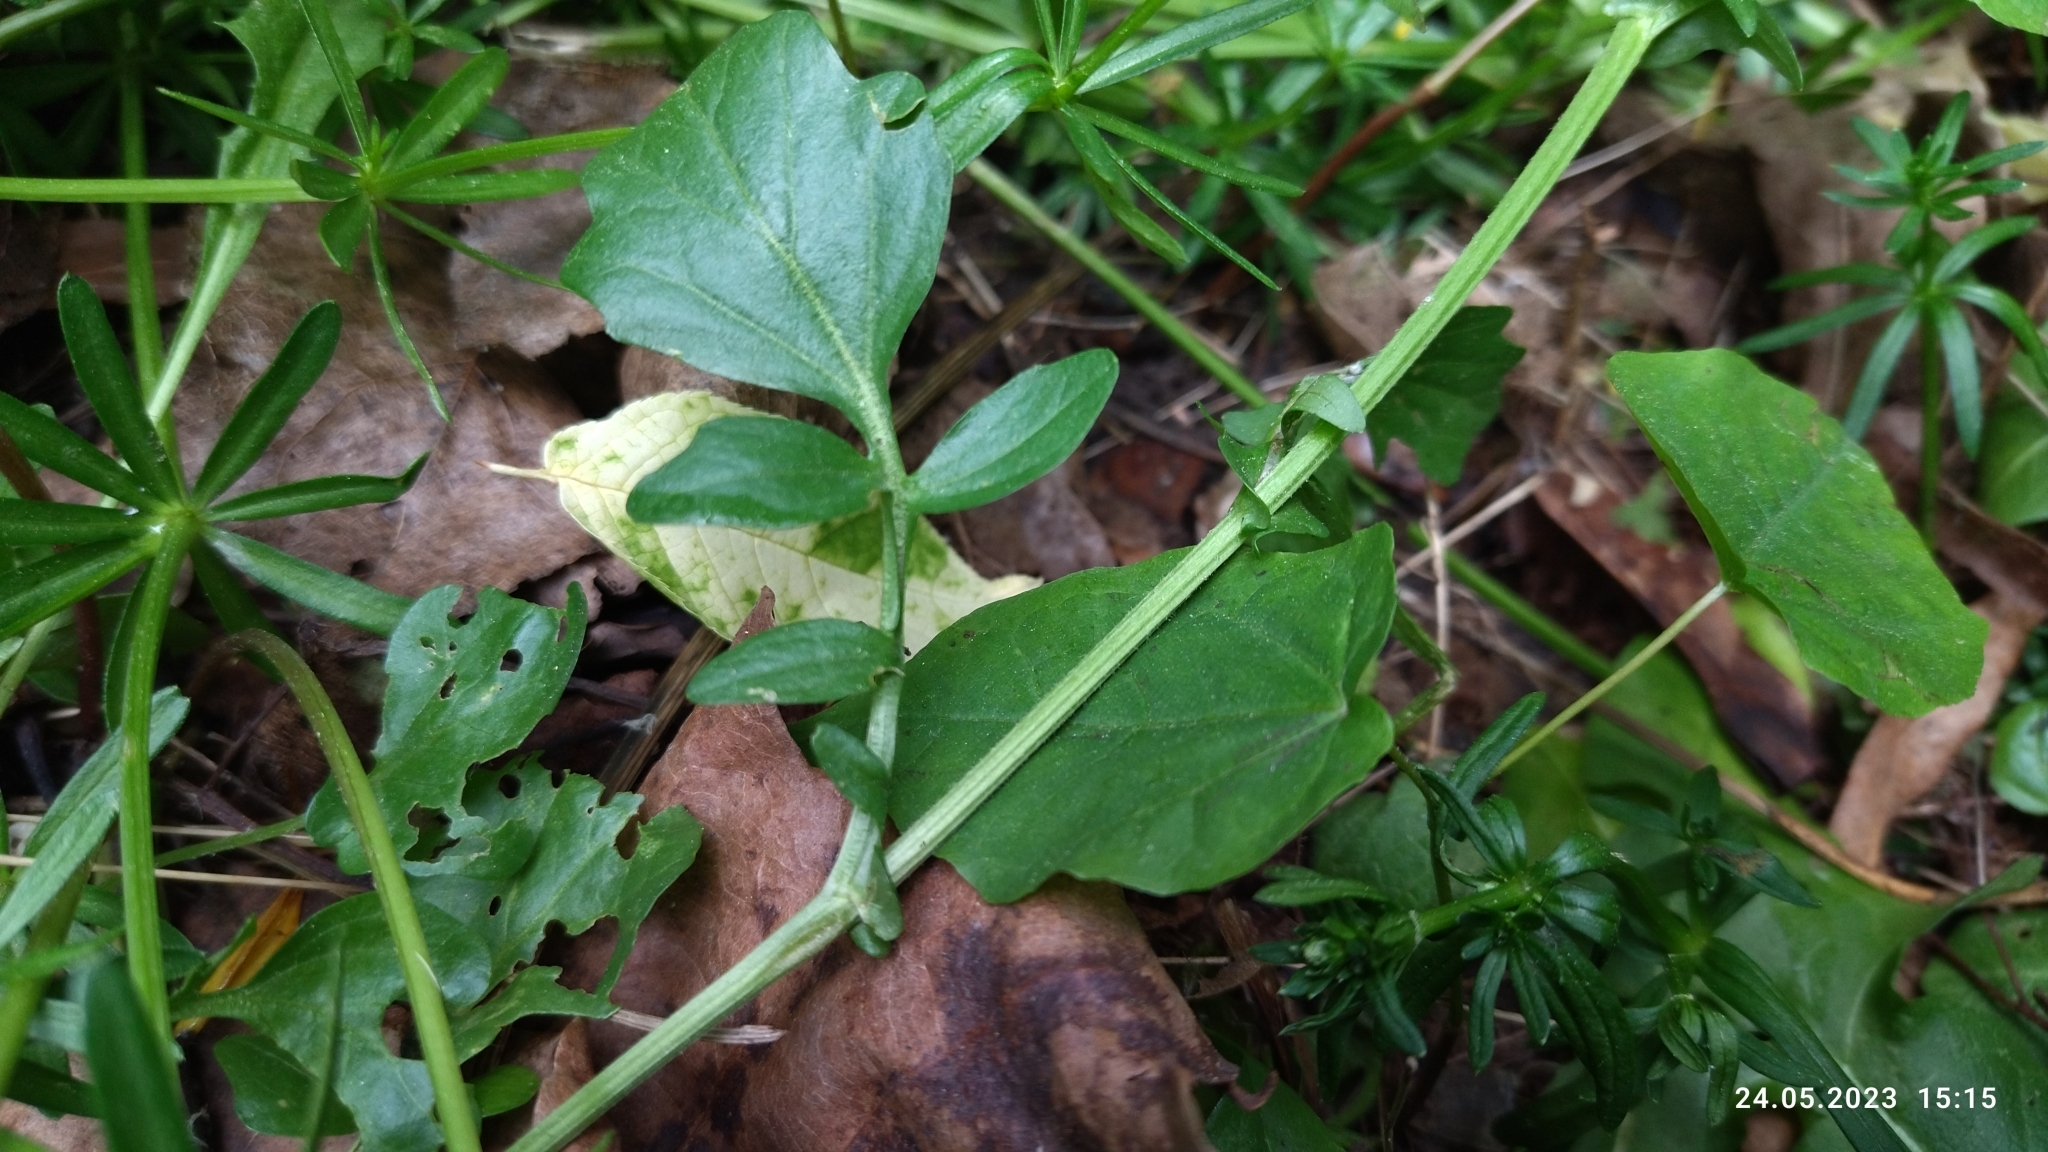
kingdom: Plantae
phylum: Tracheophyta
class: Magnoliopsida
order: Brassicales
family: Brassicaceae
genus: Barbarea
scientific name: Barbarea vulgaris
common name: Cressy-greens
